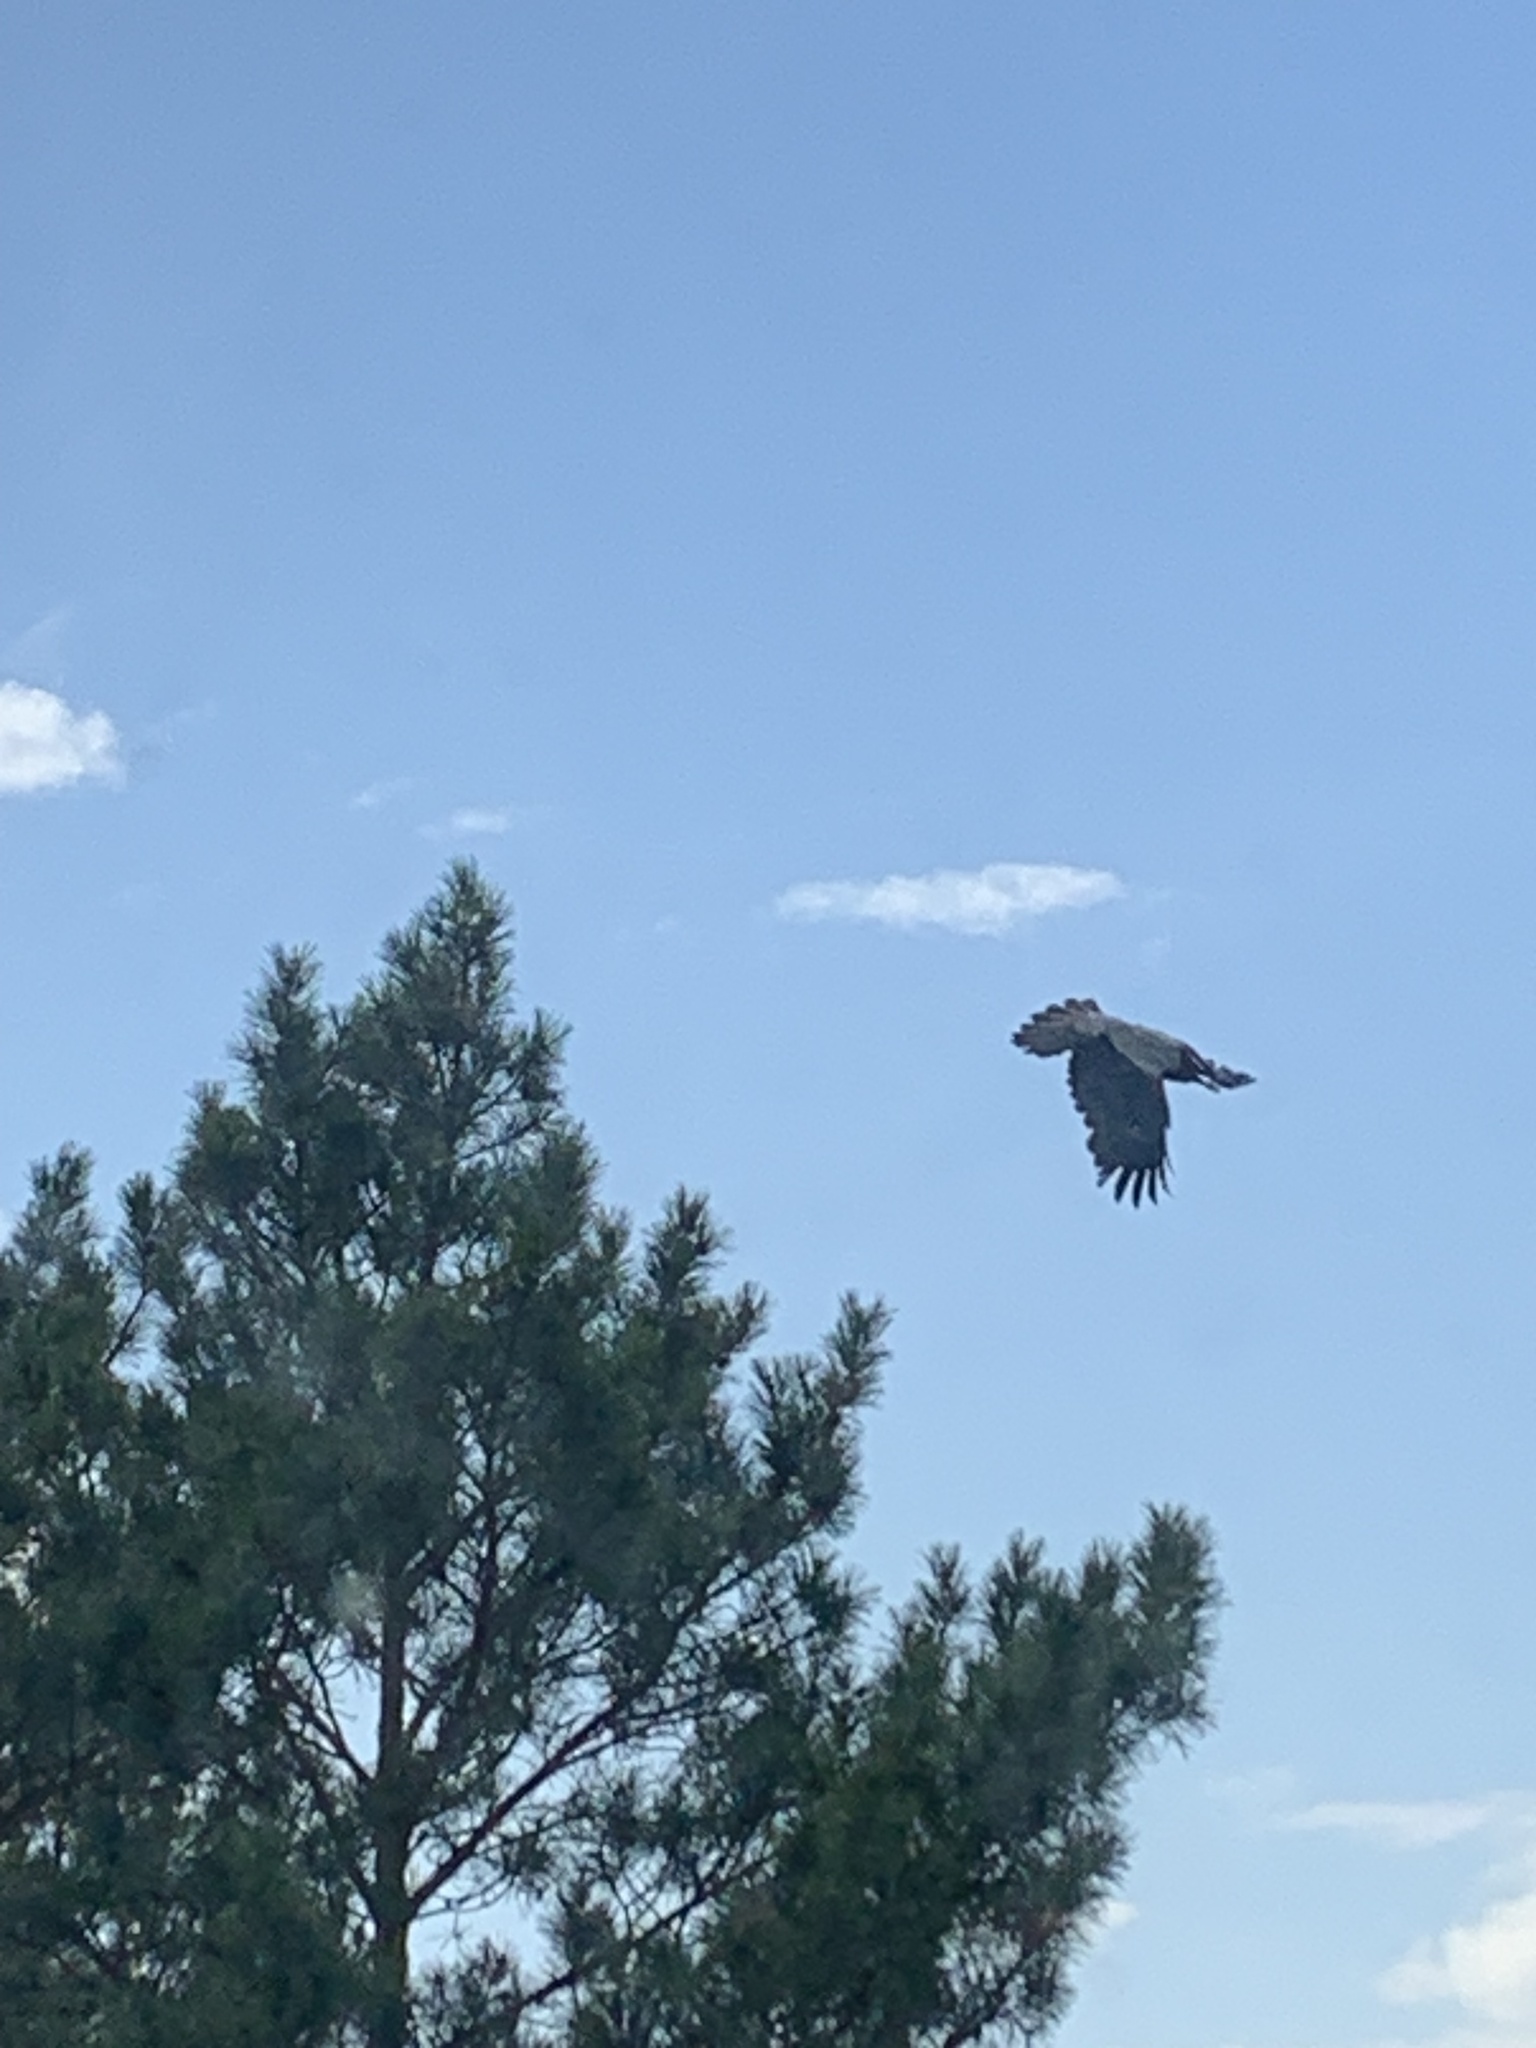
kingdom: Animalia
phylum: Chordata
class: Aves
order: Passeriformes
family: Corvidae
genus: Corvus
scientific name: Corvus cornix
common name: Hooded crow
